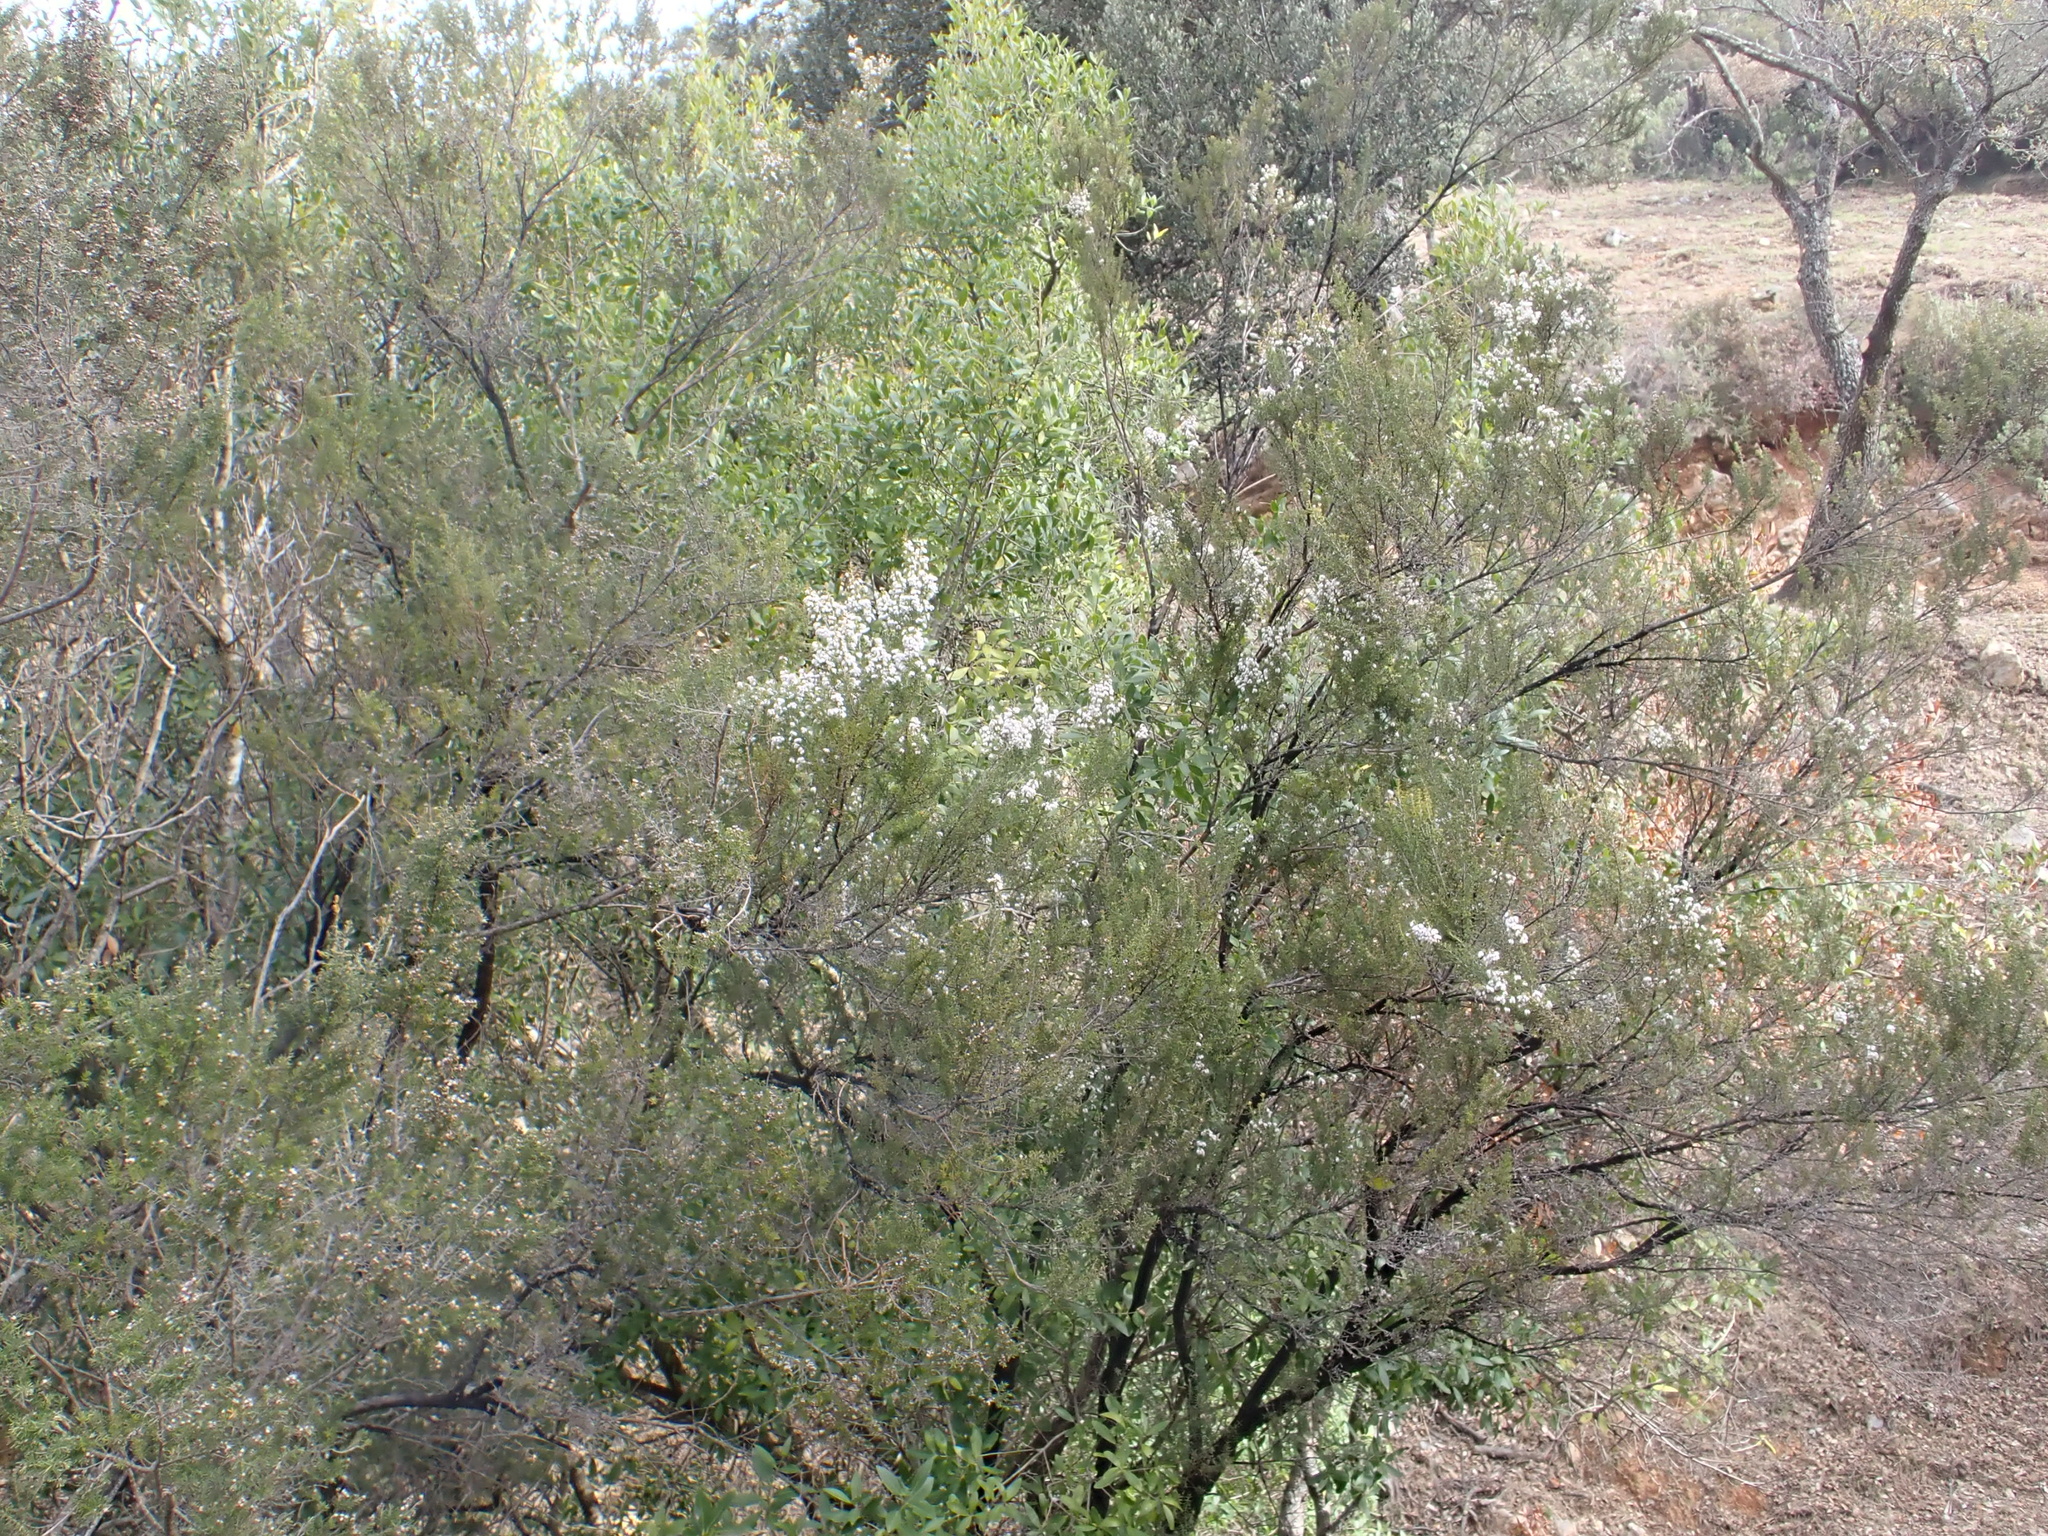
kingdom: Plantae
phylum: Tracheophyta
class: Magnoliopsida
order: Ericales
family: Ericaceae
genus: Erica
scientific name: Erica arborea
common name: Tree heath
